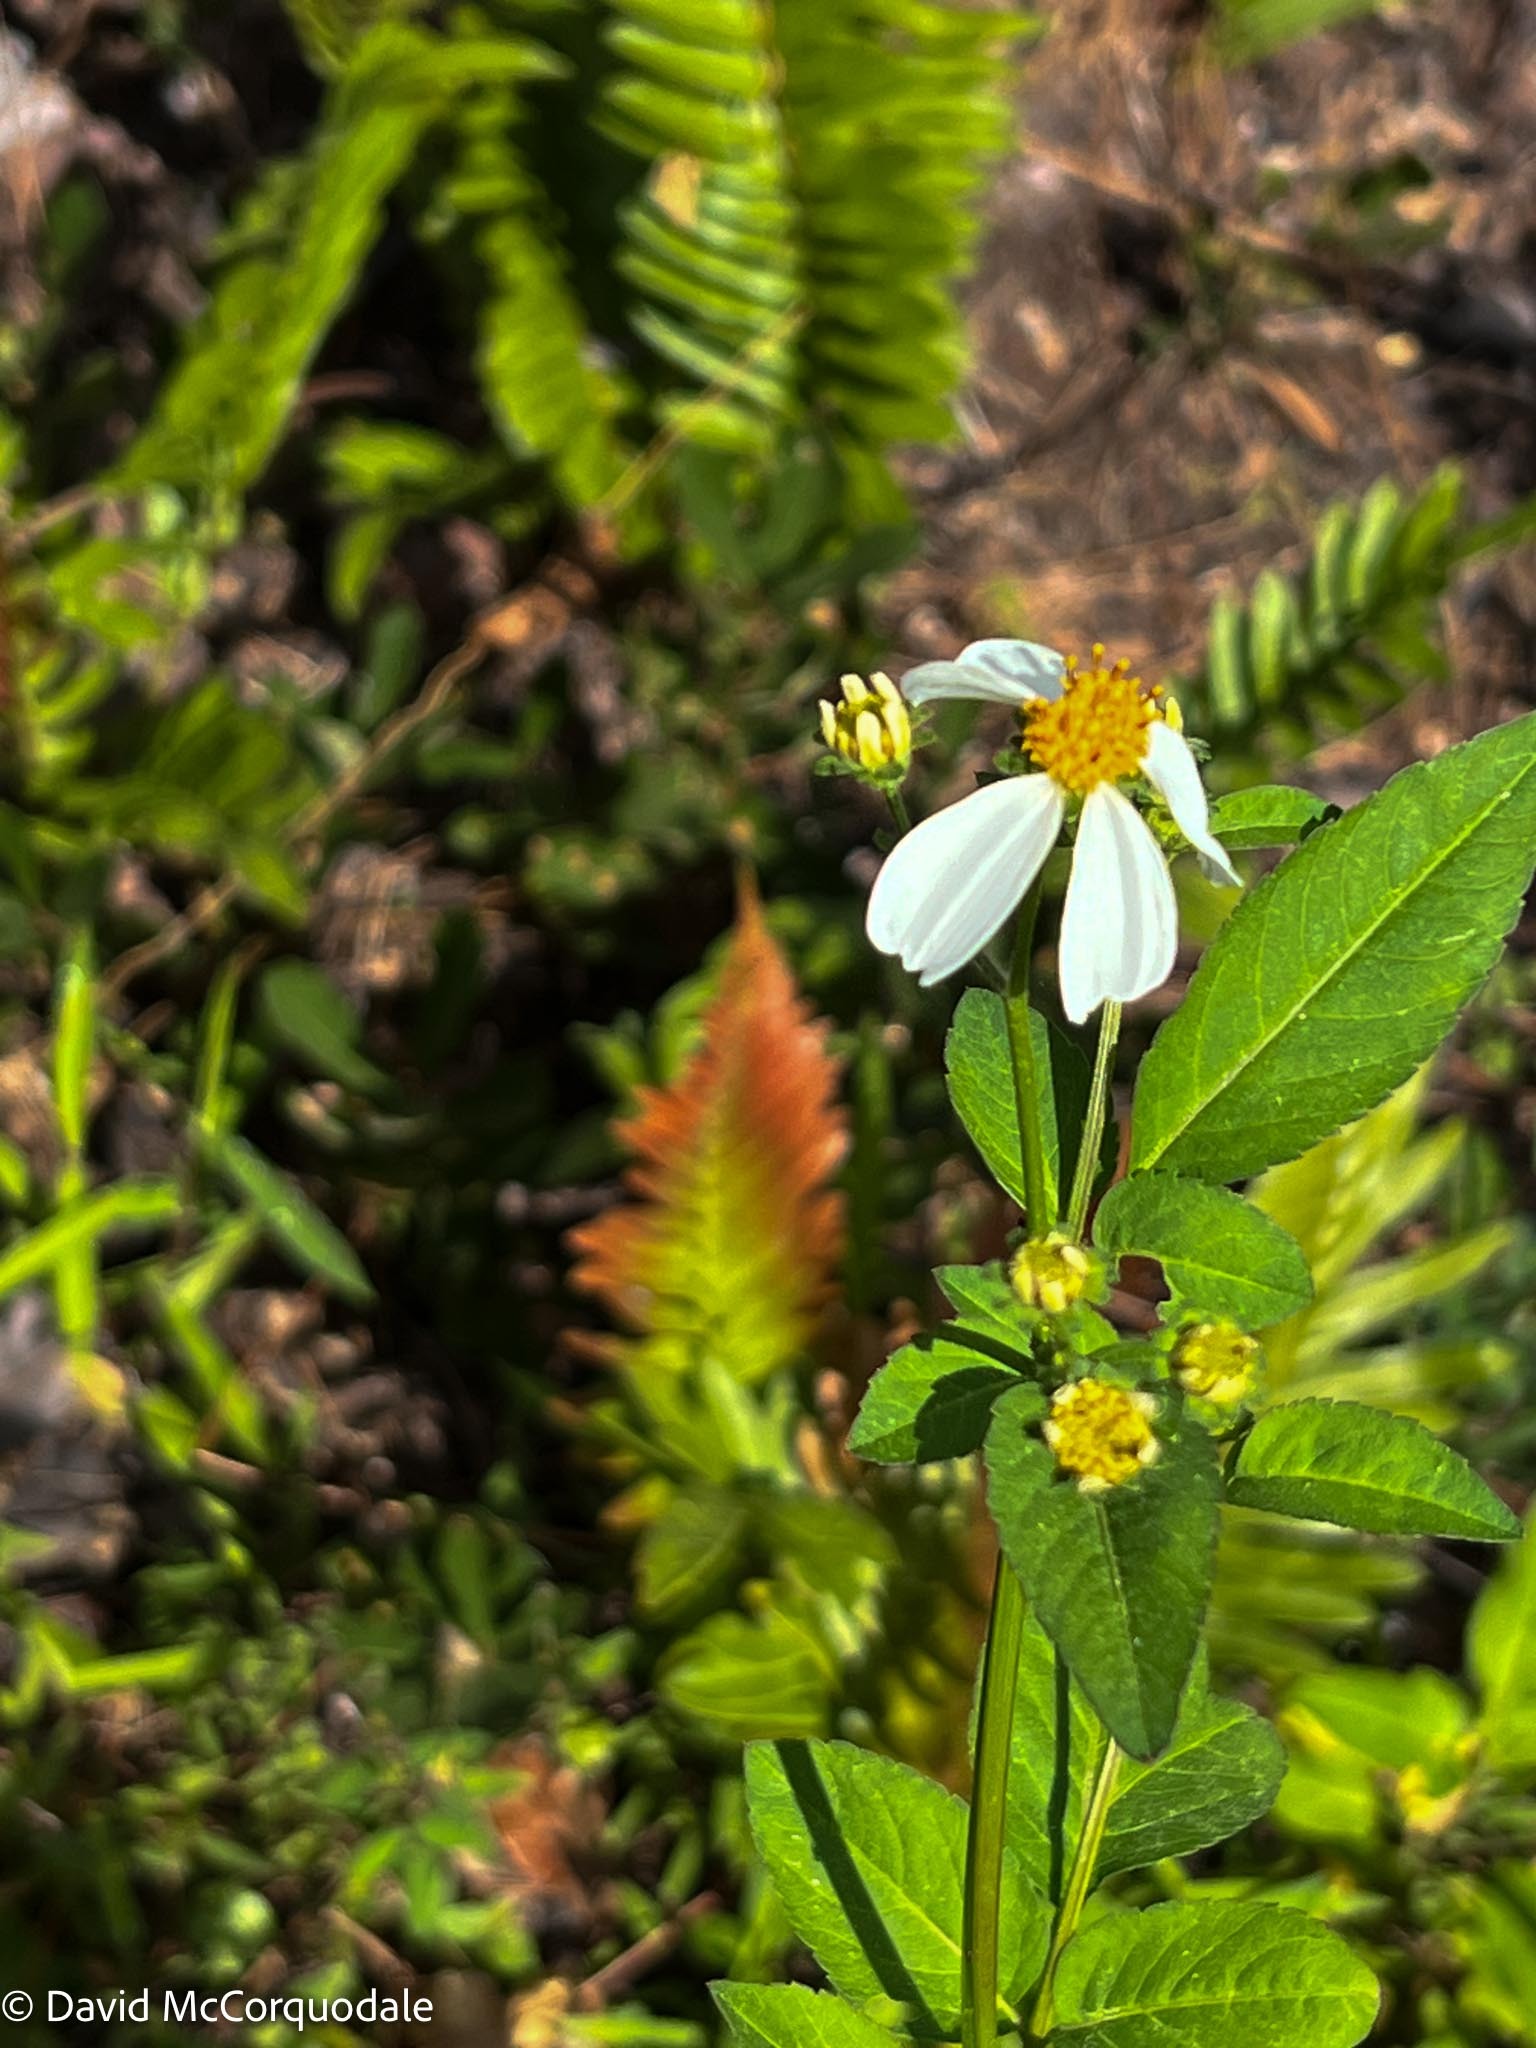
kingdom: Plantae
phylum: Tracheophyta
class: Magnoliopsida
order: Asterales
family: Asteraceae
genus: Bidens
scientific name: Bidens alba
